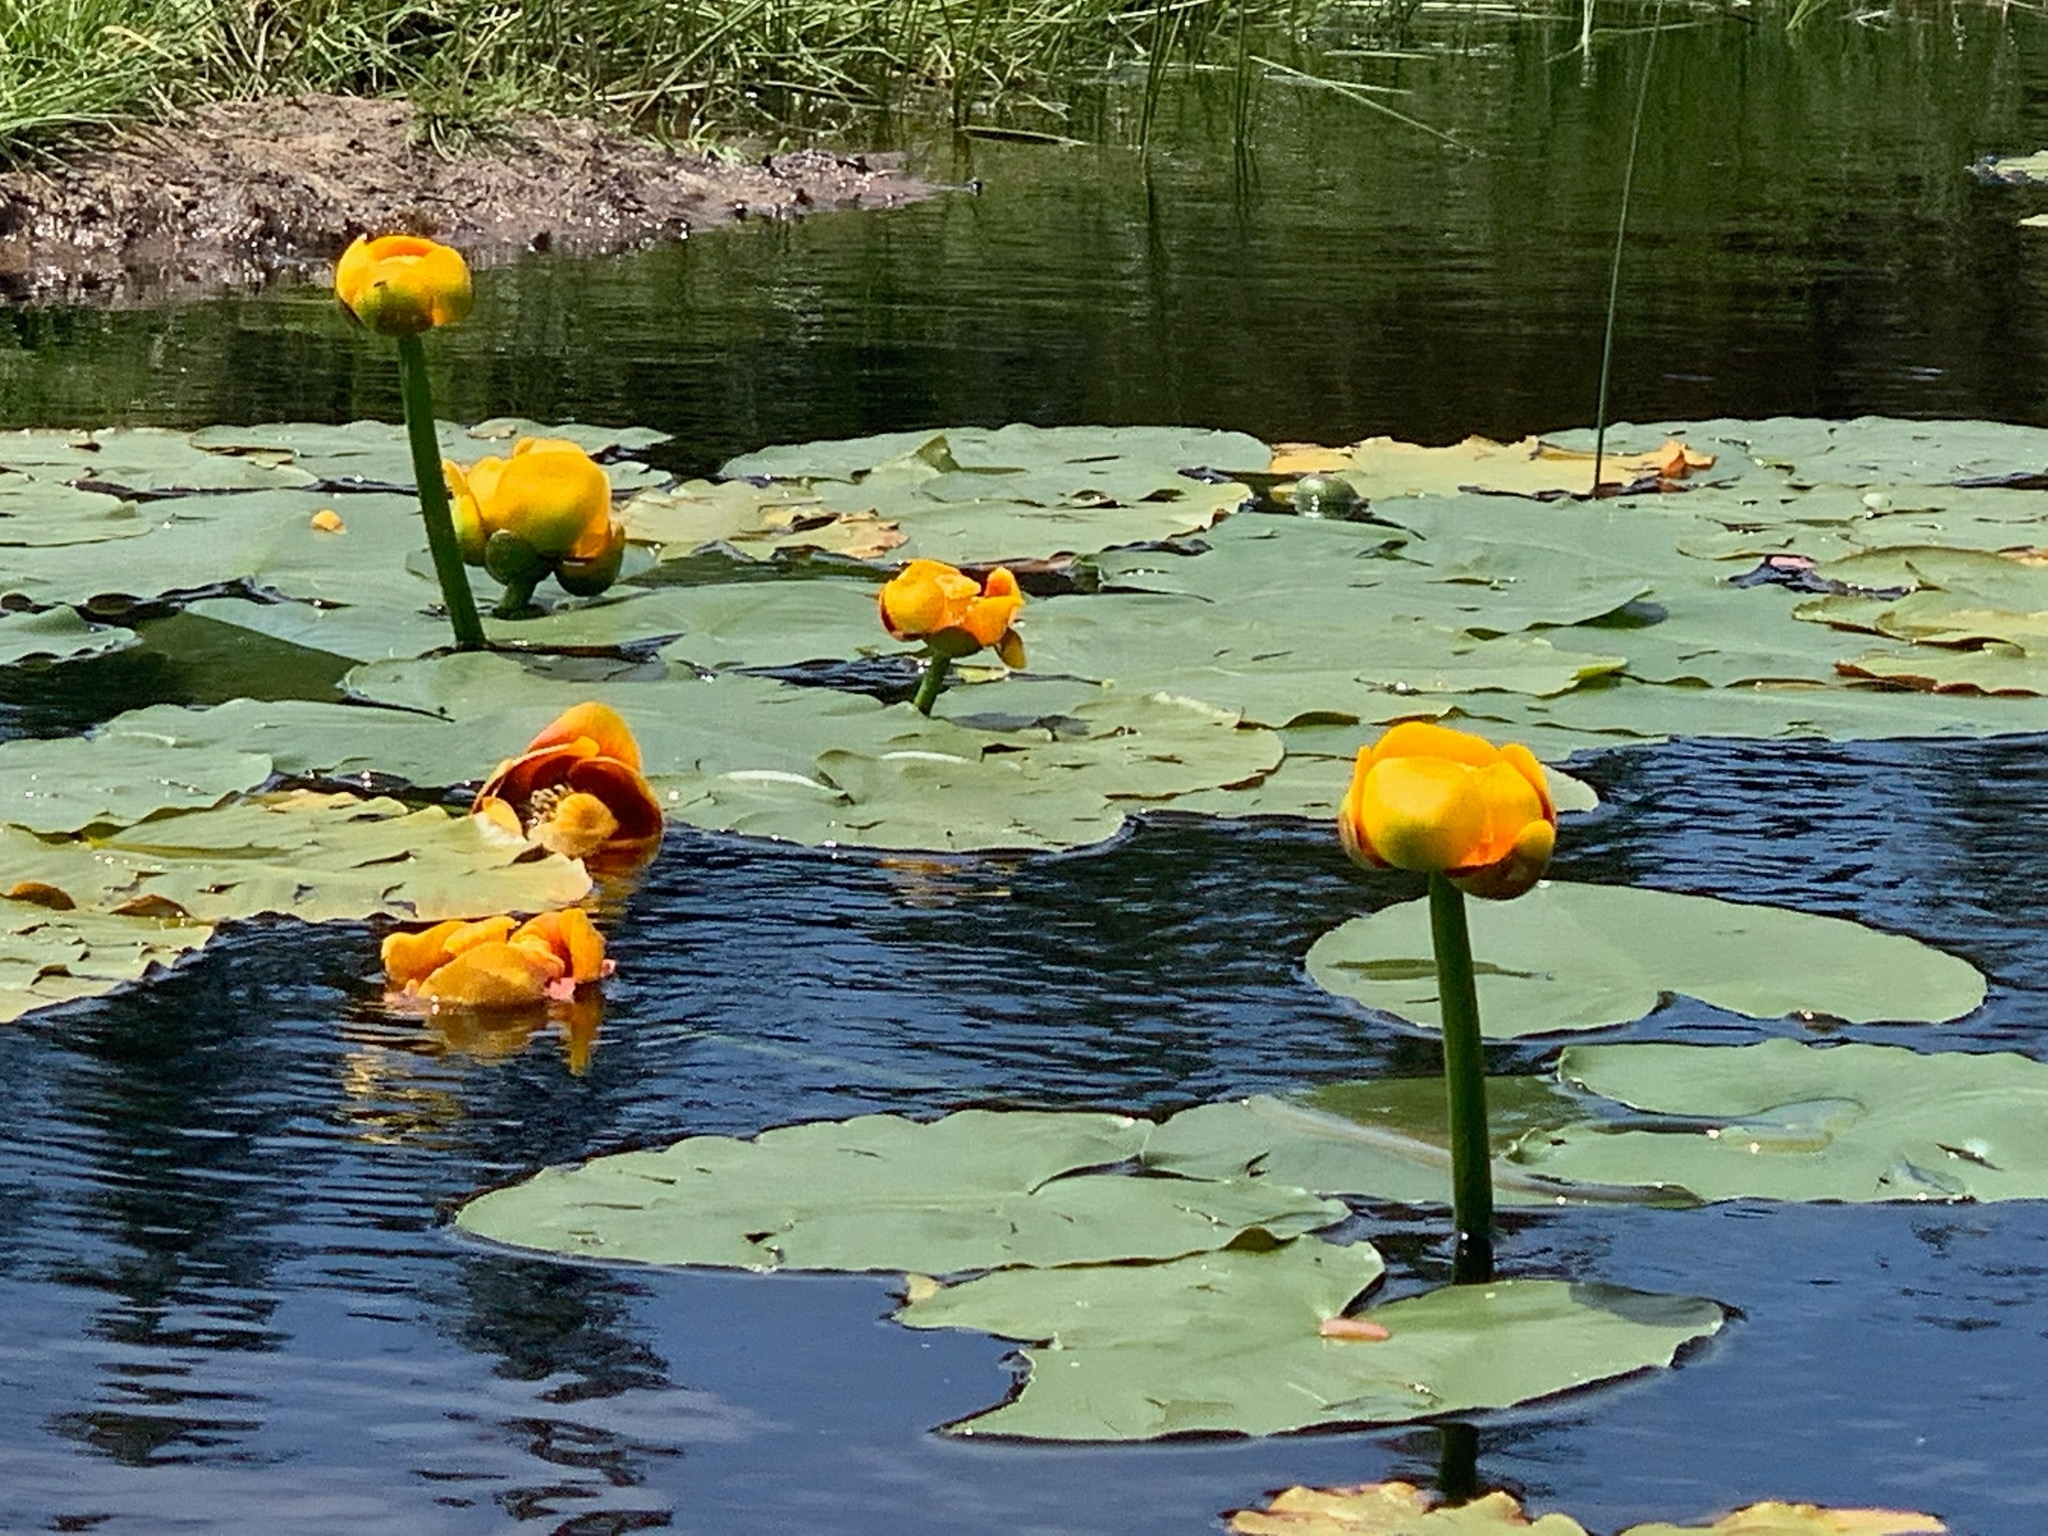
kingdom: Plantae
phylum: Tracheophyta
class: Magnoliopsida
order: Nymphaeales
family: Nymphaeaceae
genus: Nuphar
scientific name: Nuphar variegata
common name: Beaver-root
